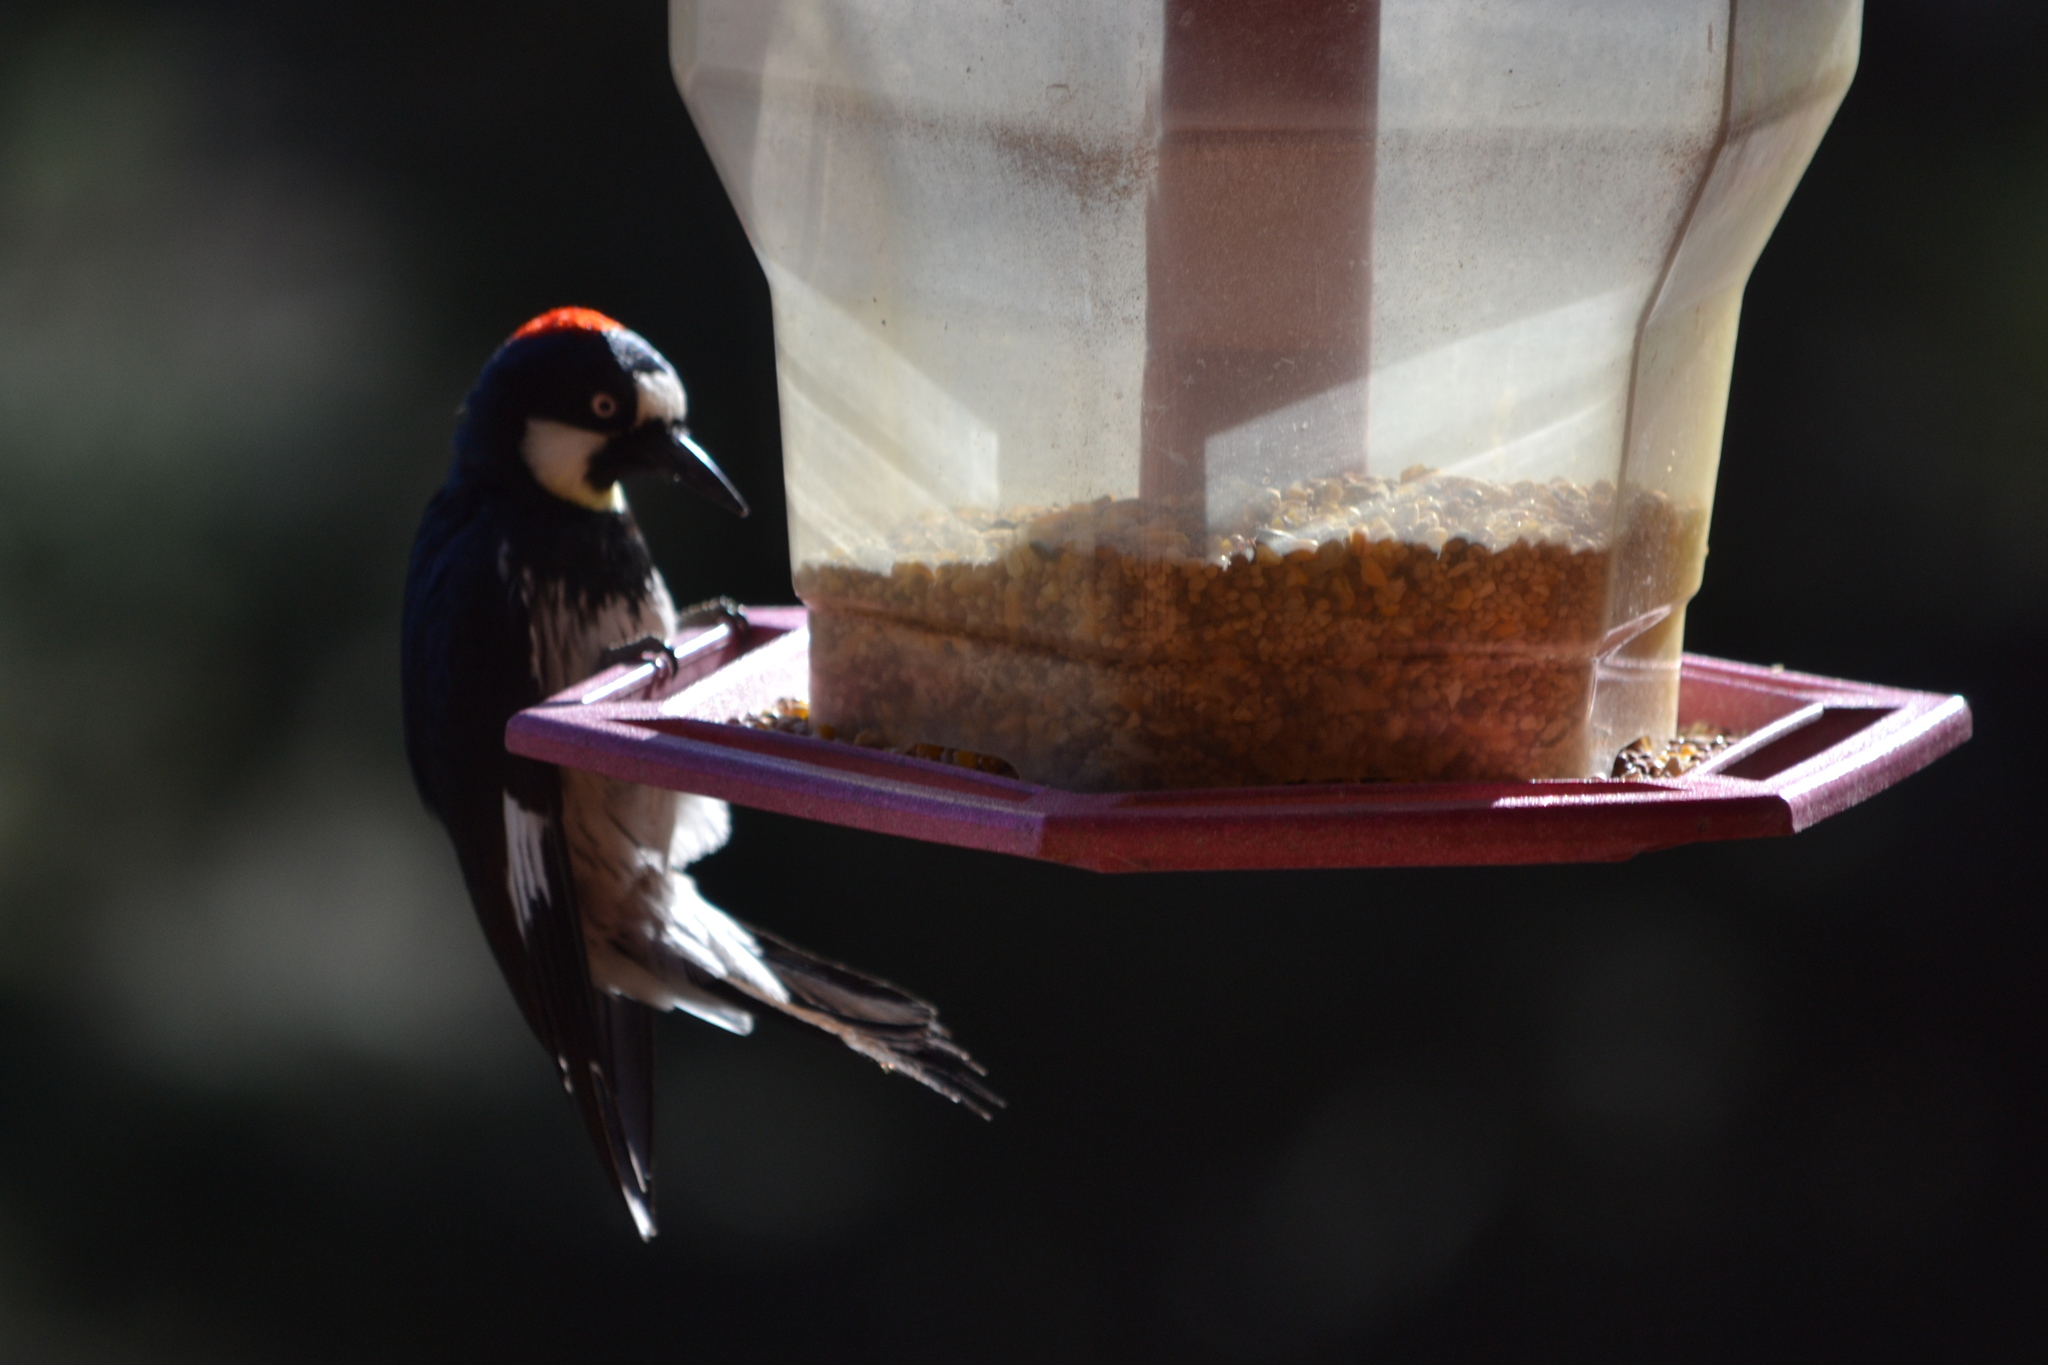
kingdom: Animalia
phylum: Chordata
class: Aves
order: Piciformes
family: Picidae
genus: Melanerpes
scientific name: Melanerpes formicivorus
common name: Acorn woodpecker
